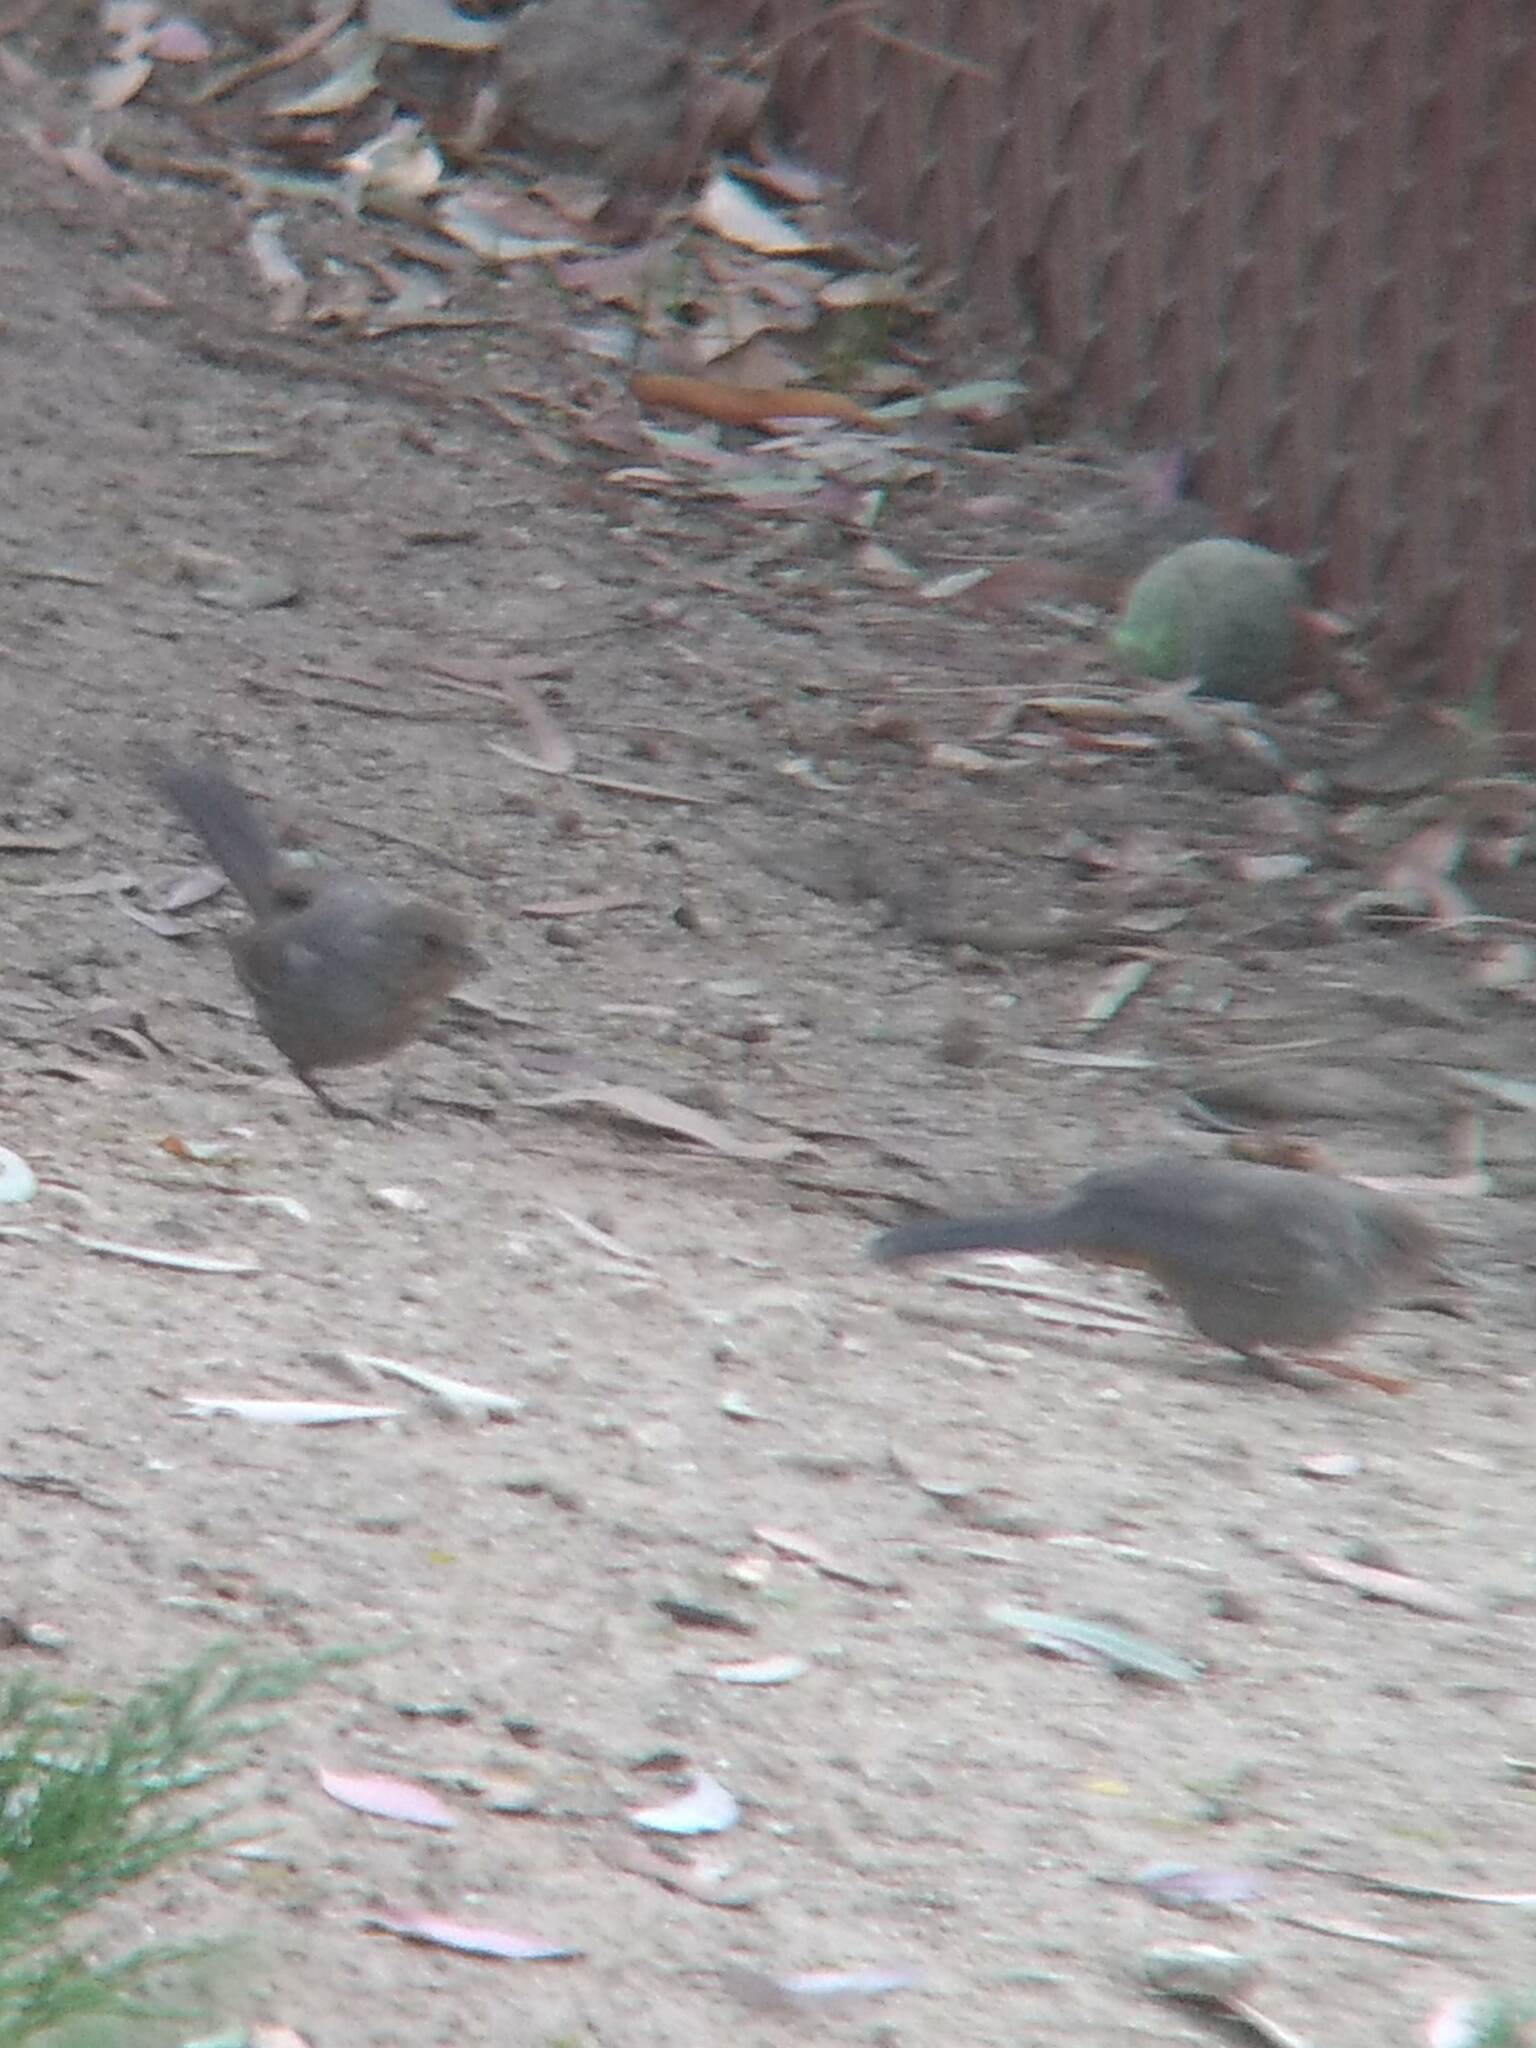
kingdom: Animalia
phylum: Chordata
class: Aves
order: Passeriformes
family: Passerellidae
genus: Melozone
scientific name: Melozone crissalis
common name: California towhee
